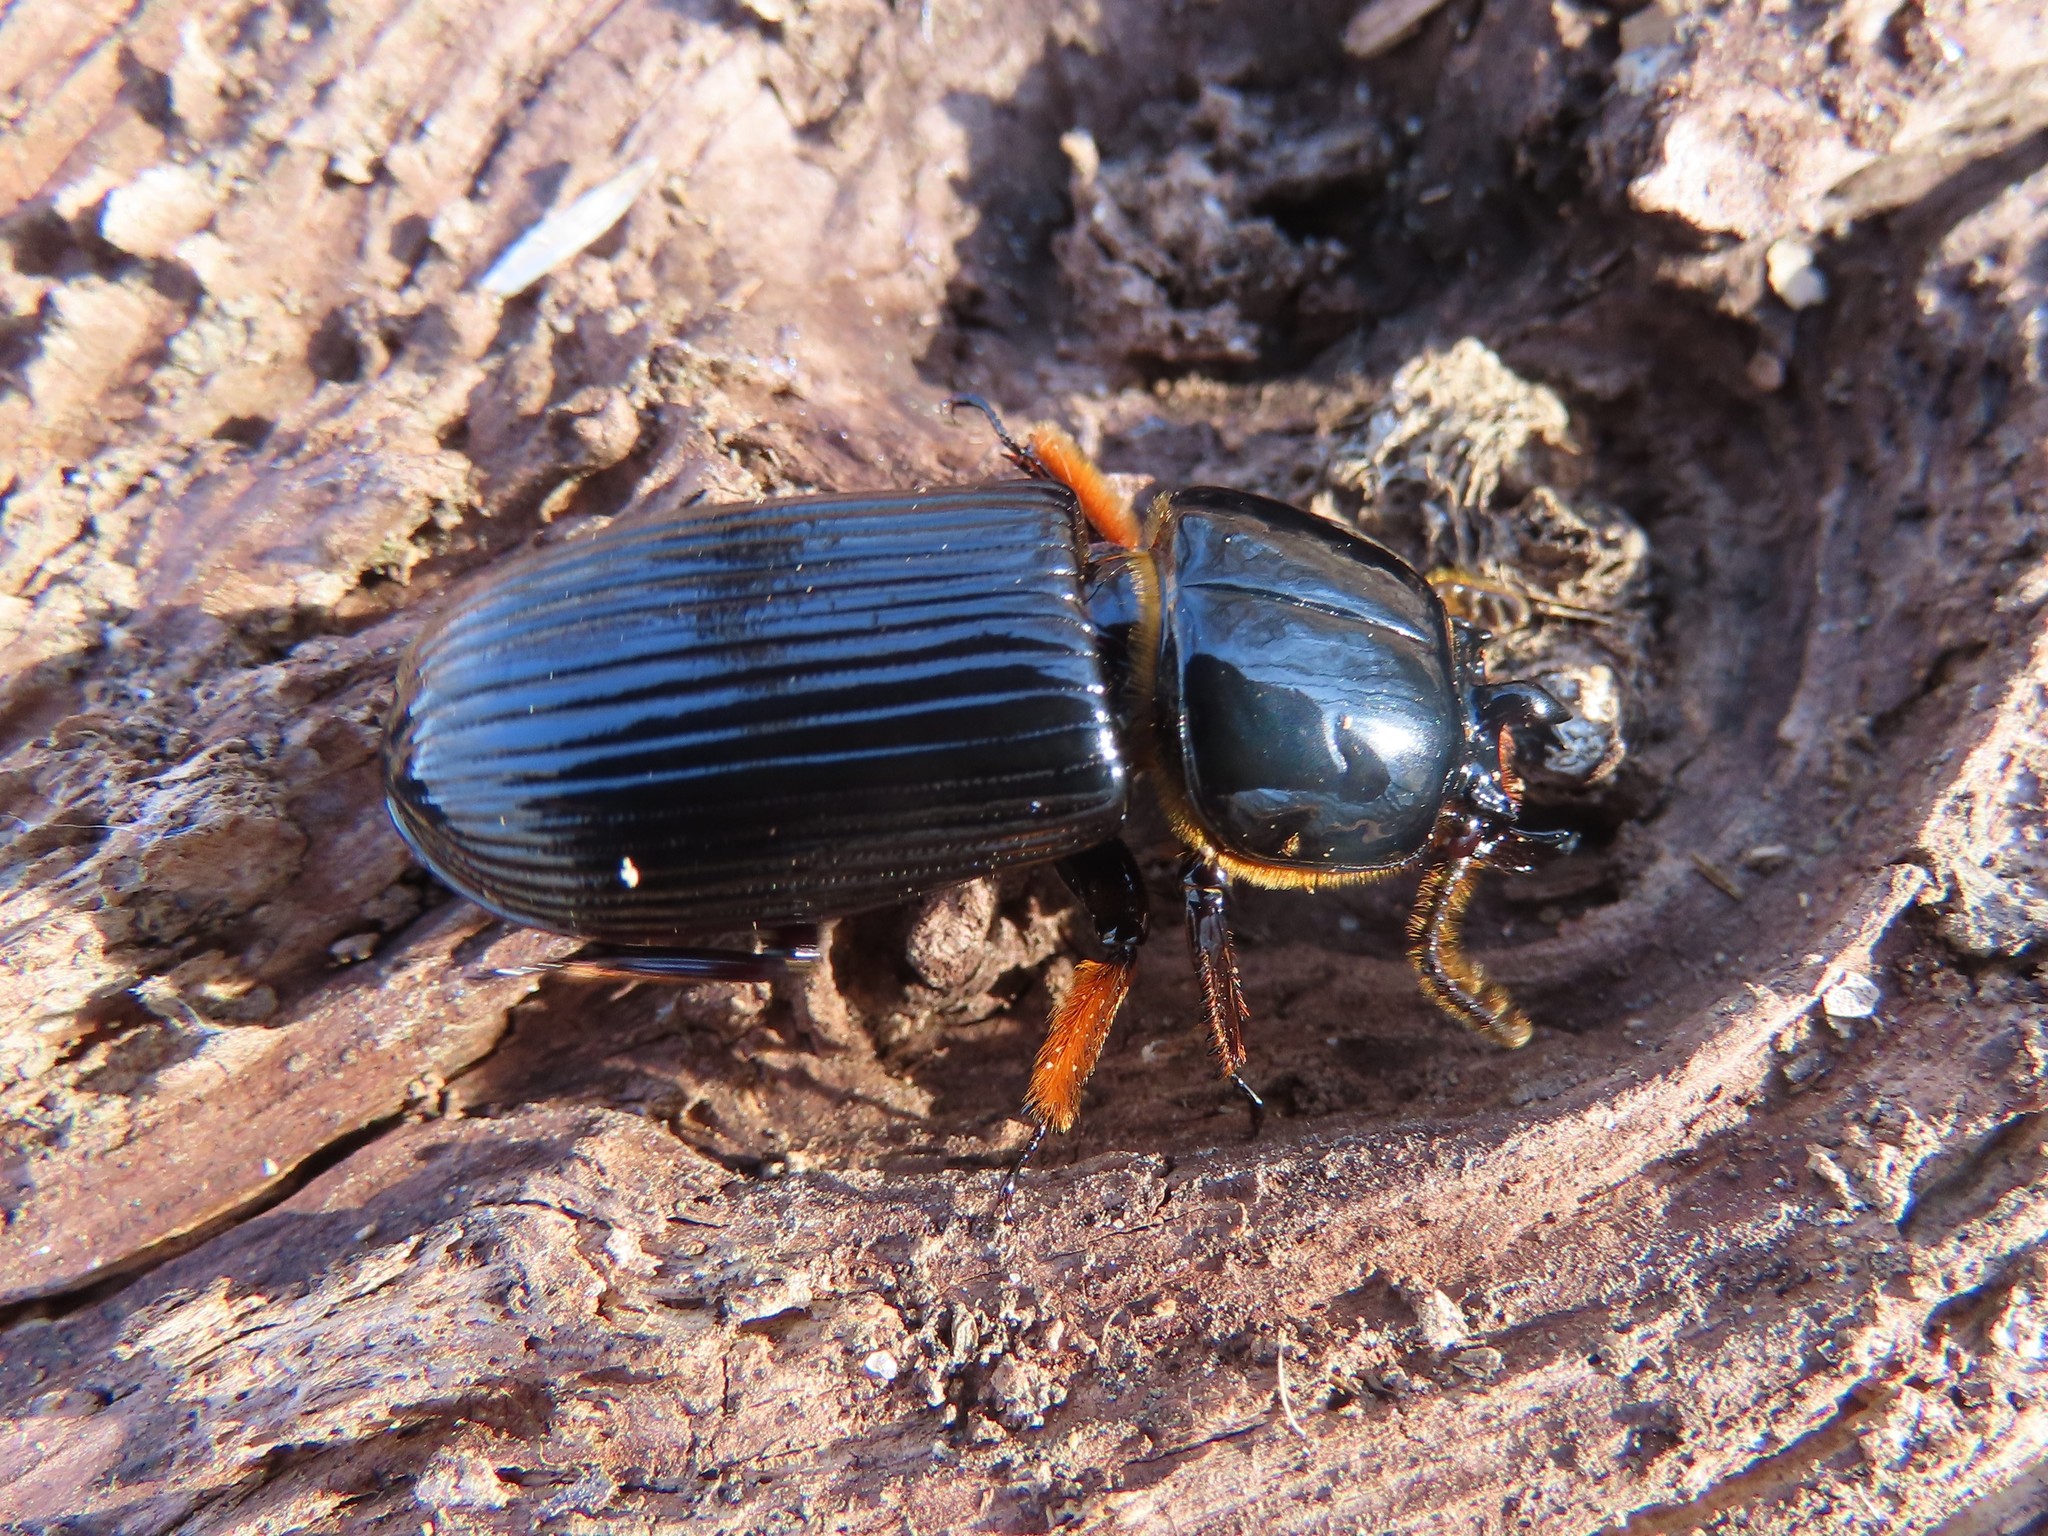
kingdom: Animalia
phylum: Arthropoda
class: Insecta
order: Coleoptera
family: Passalidae
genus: Odontotaenius
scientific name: Odontotaenius disjunctus
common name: Patent leather beetle
